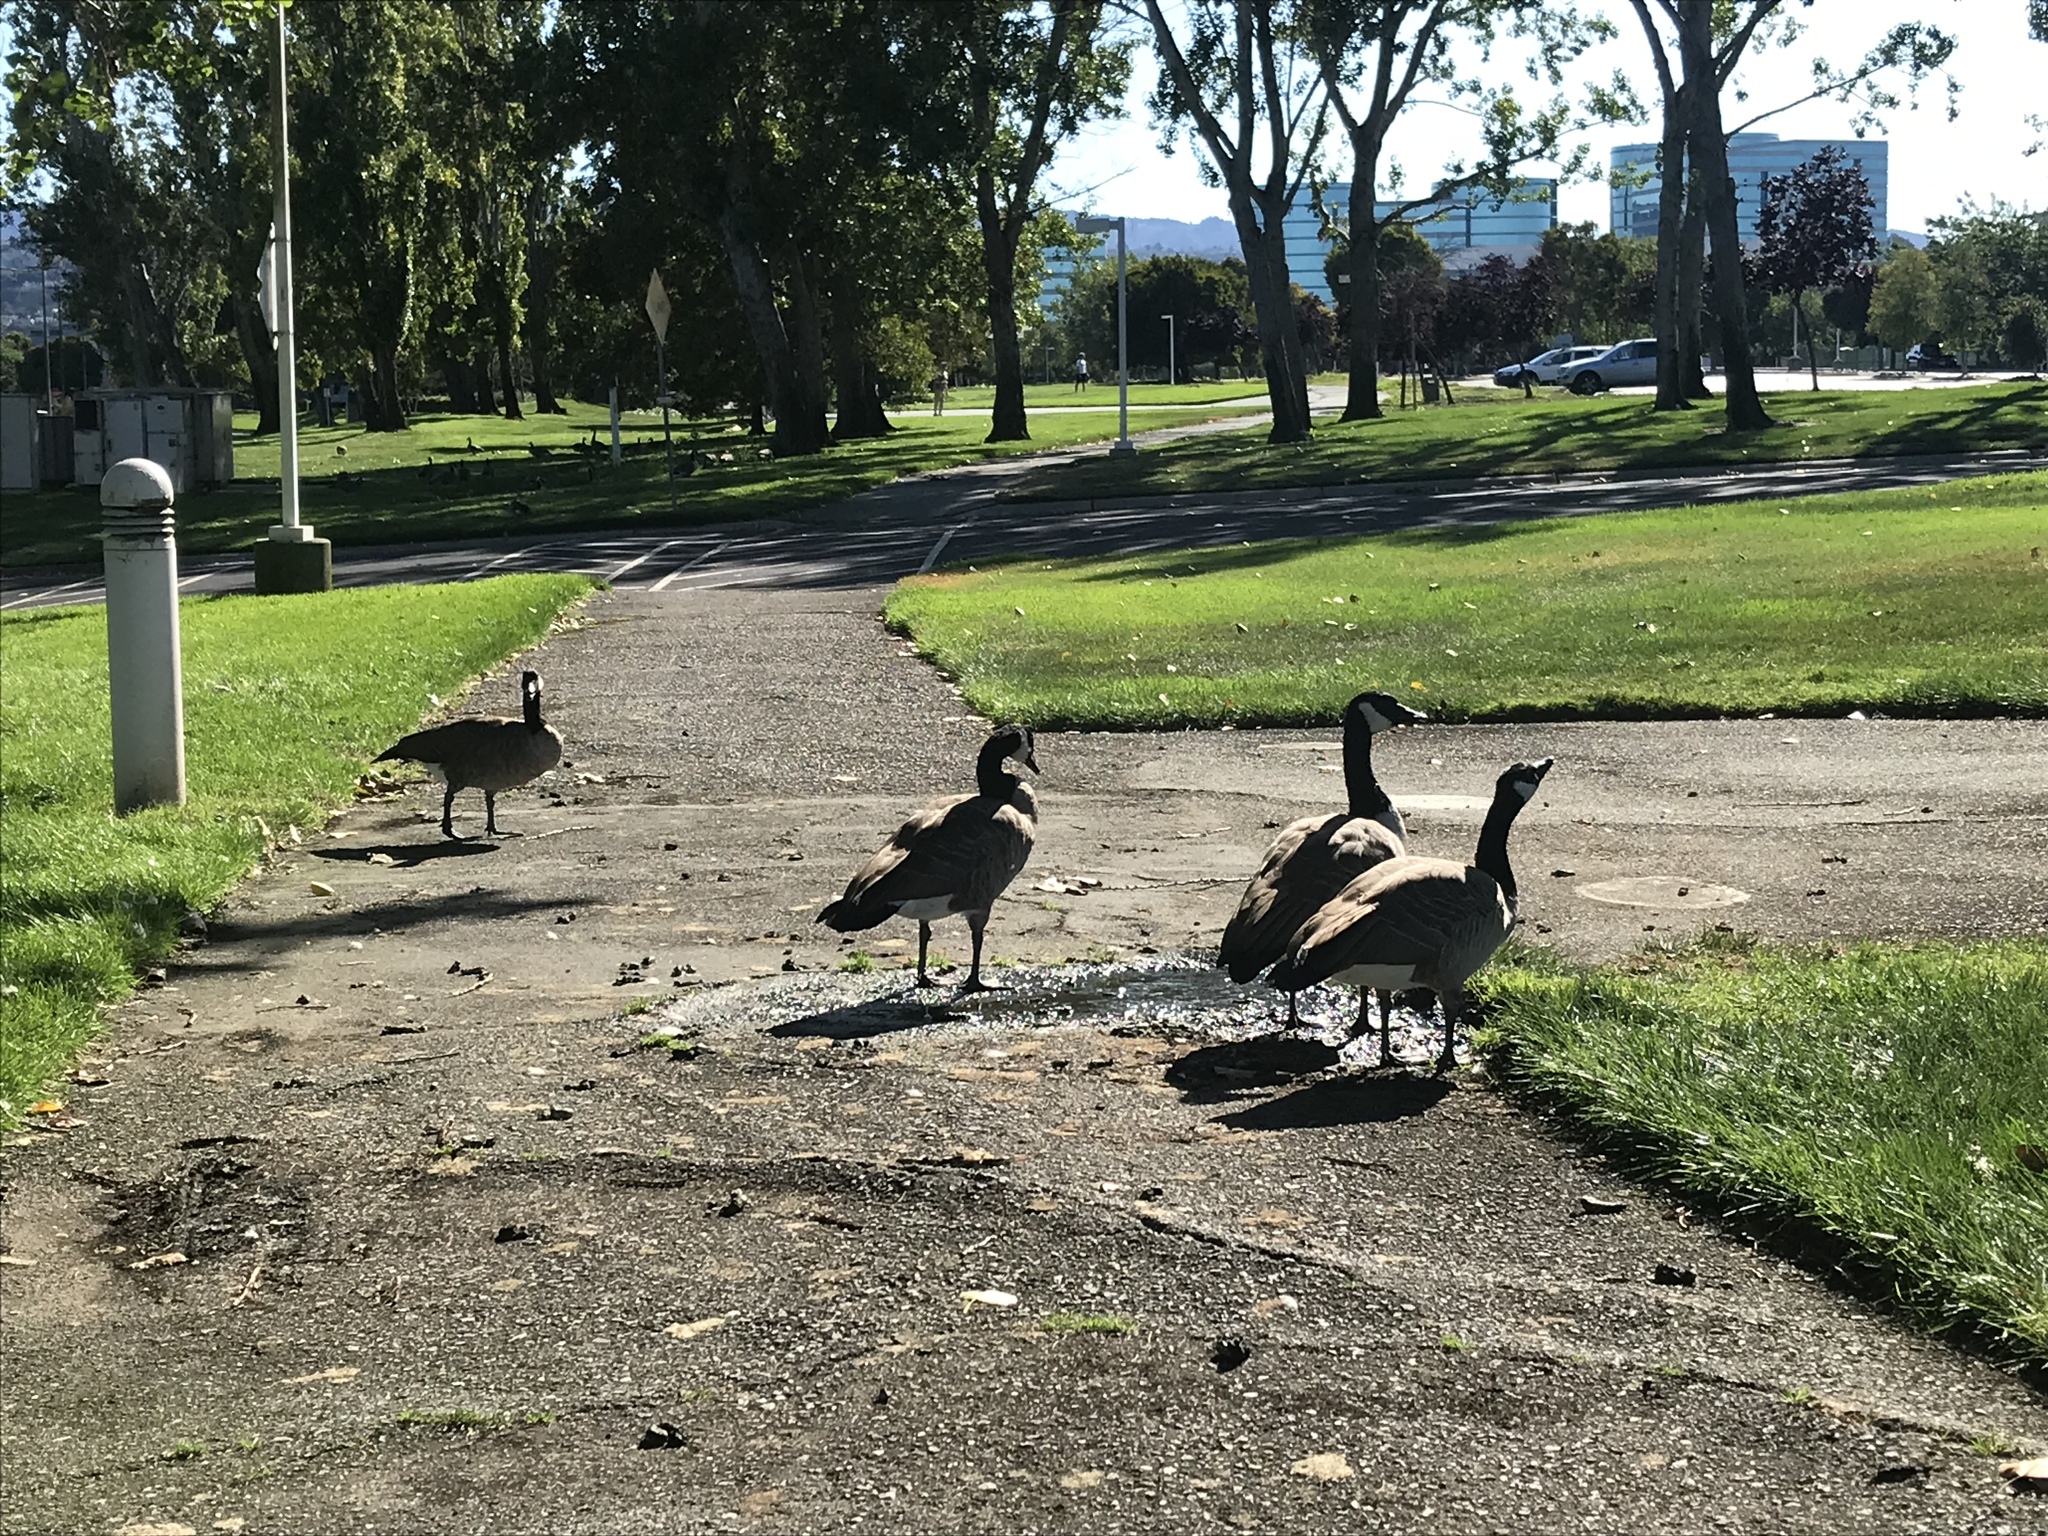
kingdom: Animalia
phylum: Chordata
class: Aves
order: Anseriformes
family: Anatidae
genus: Branta
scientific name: Branta canadensis
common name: Canada goose
